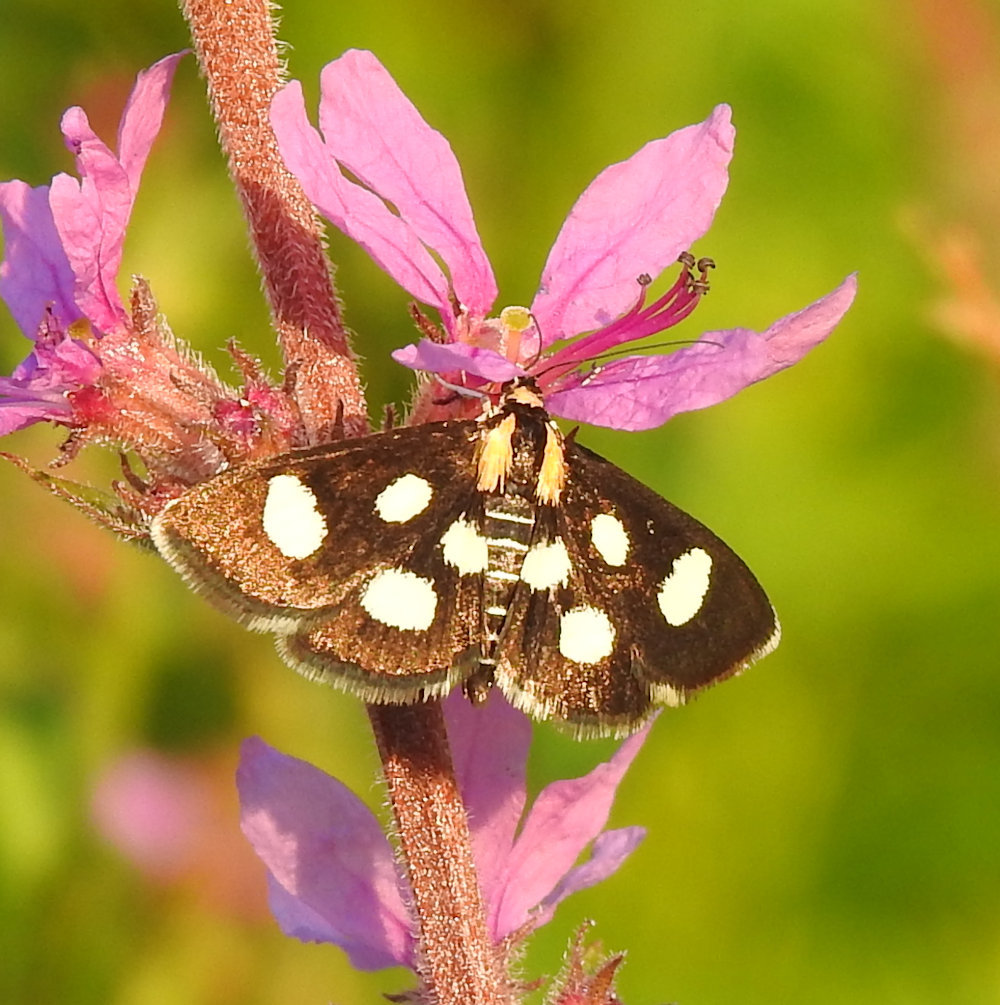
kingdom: Animalia
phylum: Arthropoda
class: Insecta
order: Lepidoptera
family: Crambidae
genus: Anania
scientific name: Anania funebris
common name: White-spotted sable moth
